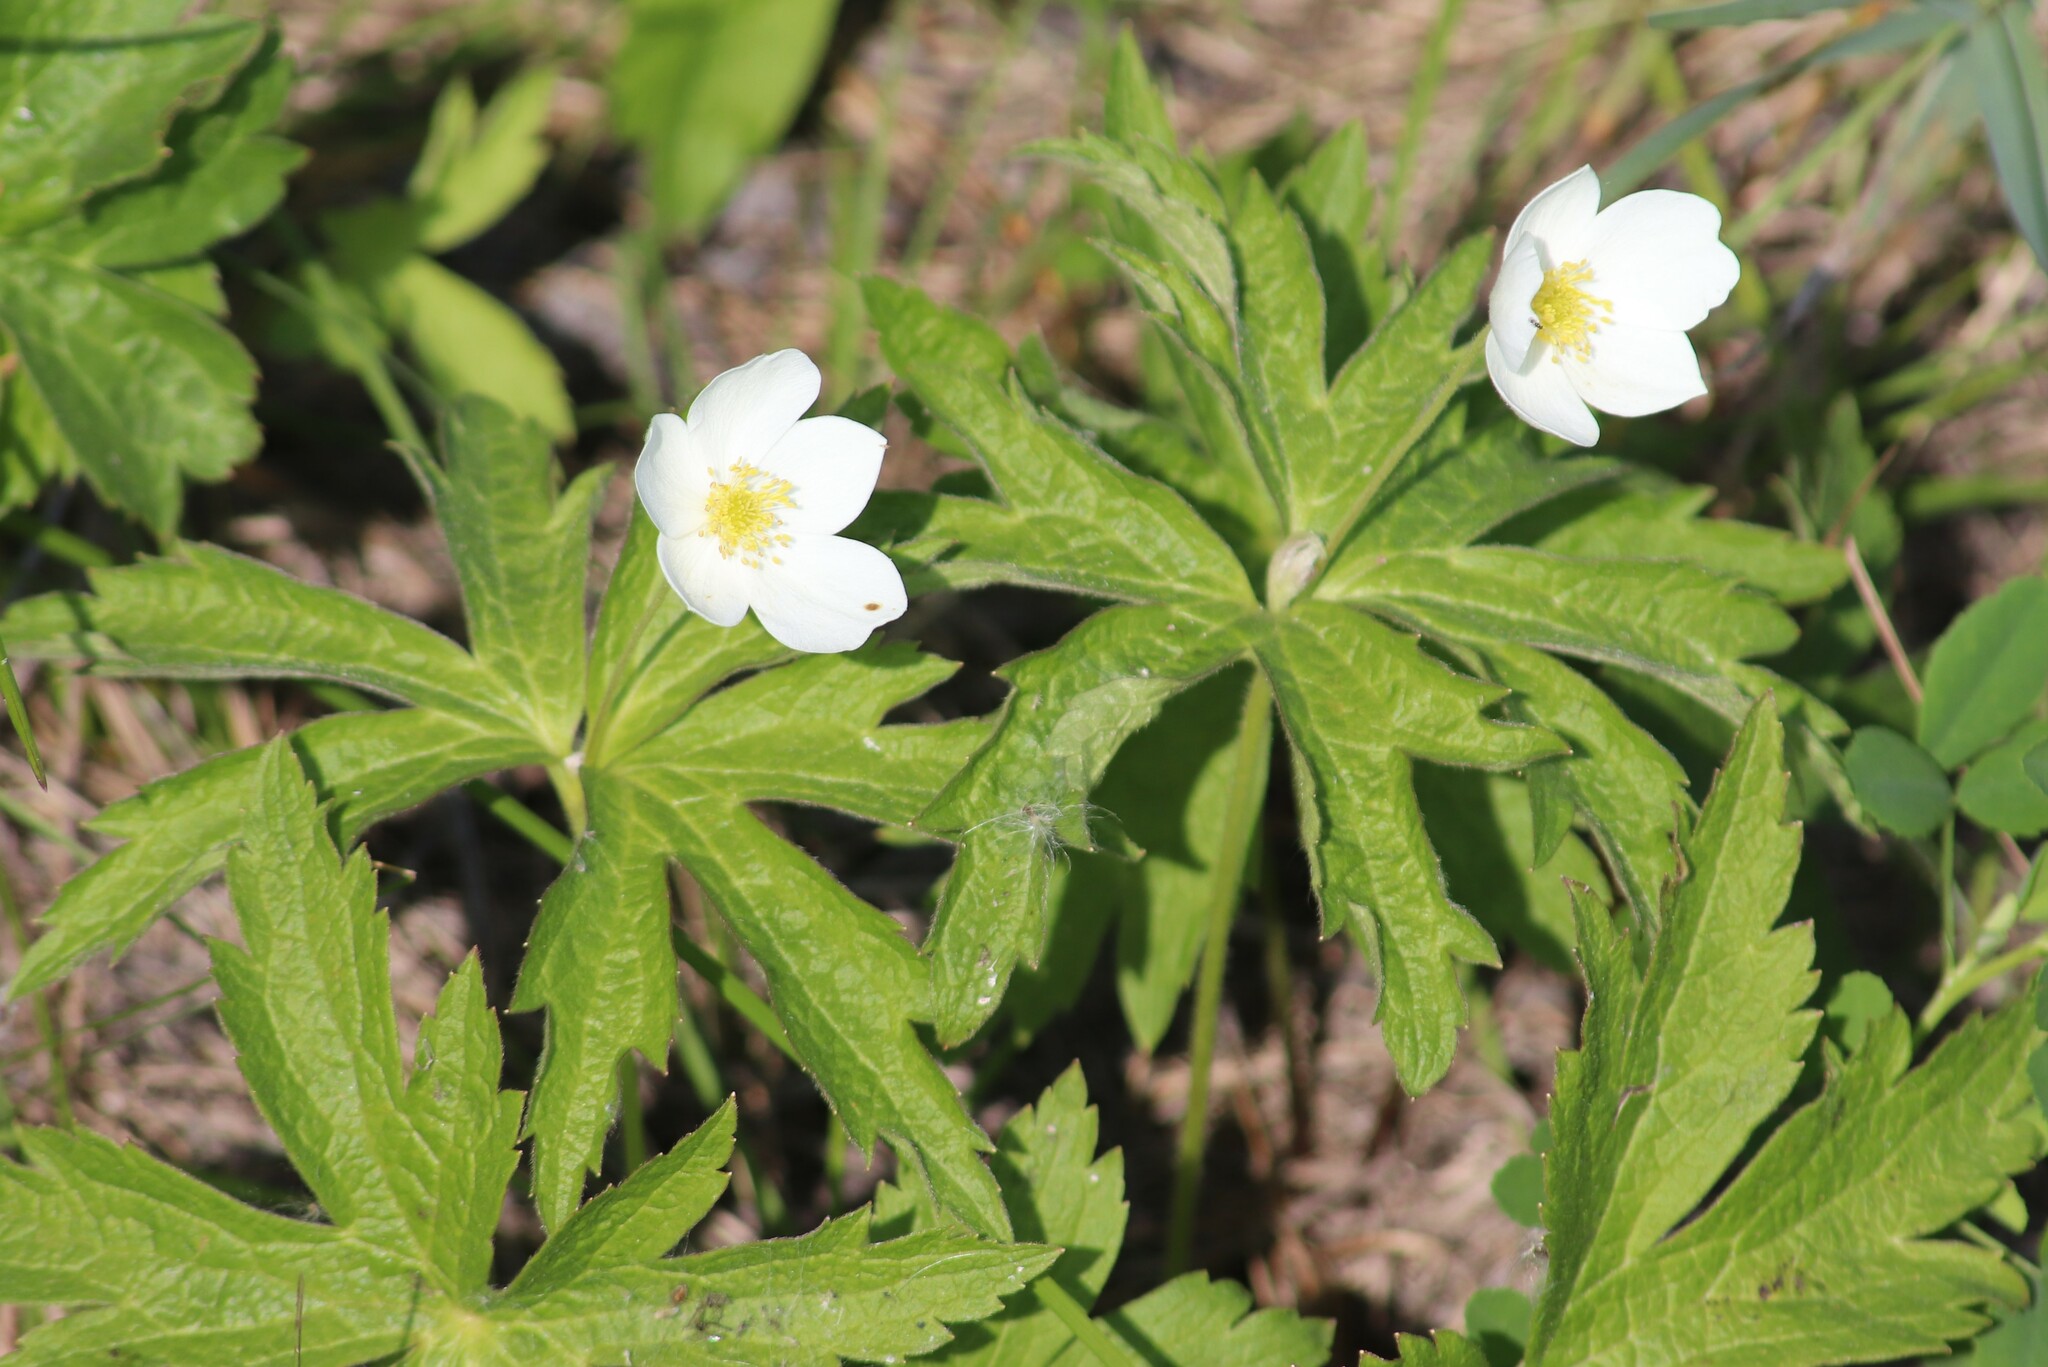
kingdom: Plantae
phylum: Tracheophyta
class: Magnoliopsida
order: Ranunculales
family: Ranunculaceae
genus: Anemonastrum
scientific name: Anemonastrum canadense
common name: Canada anemone
